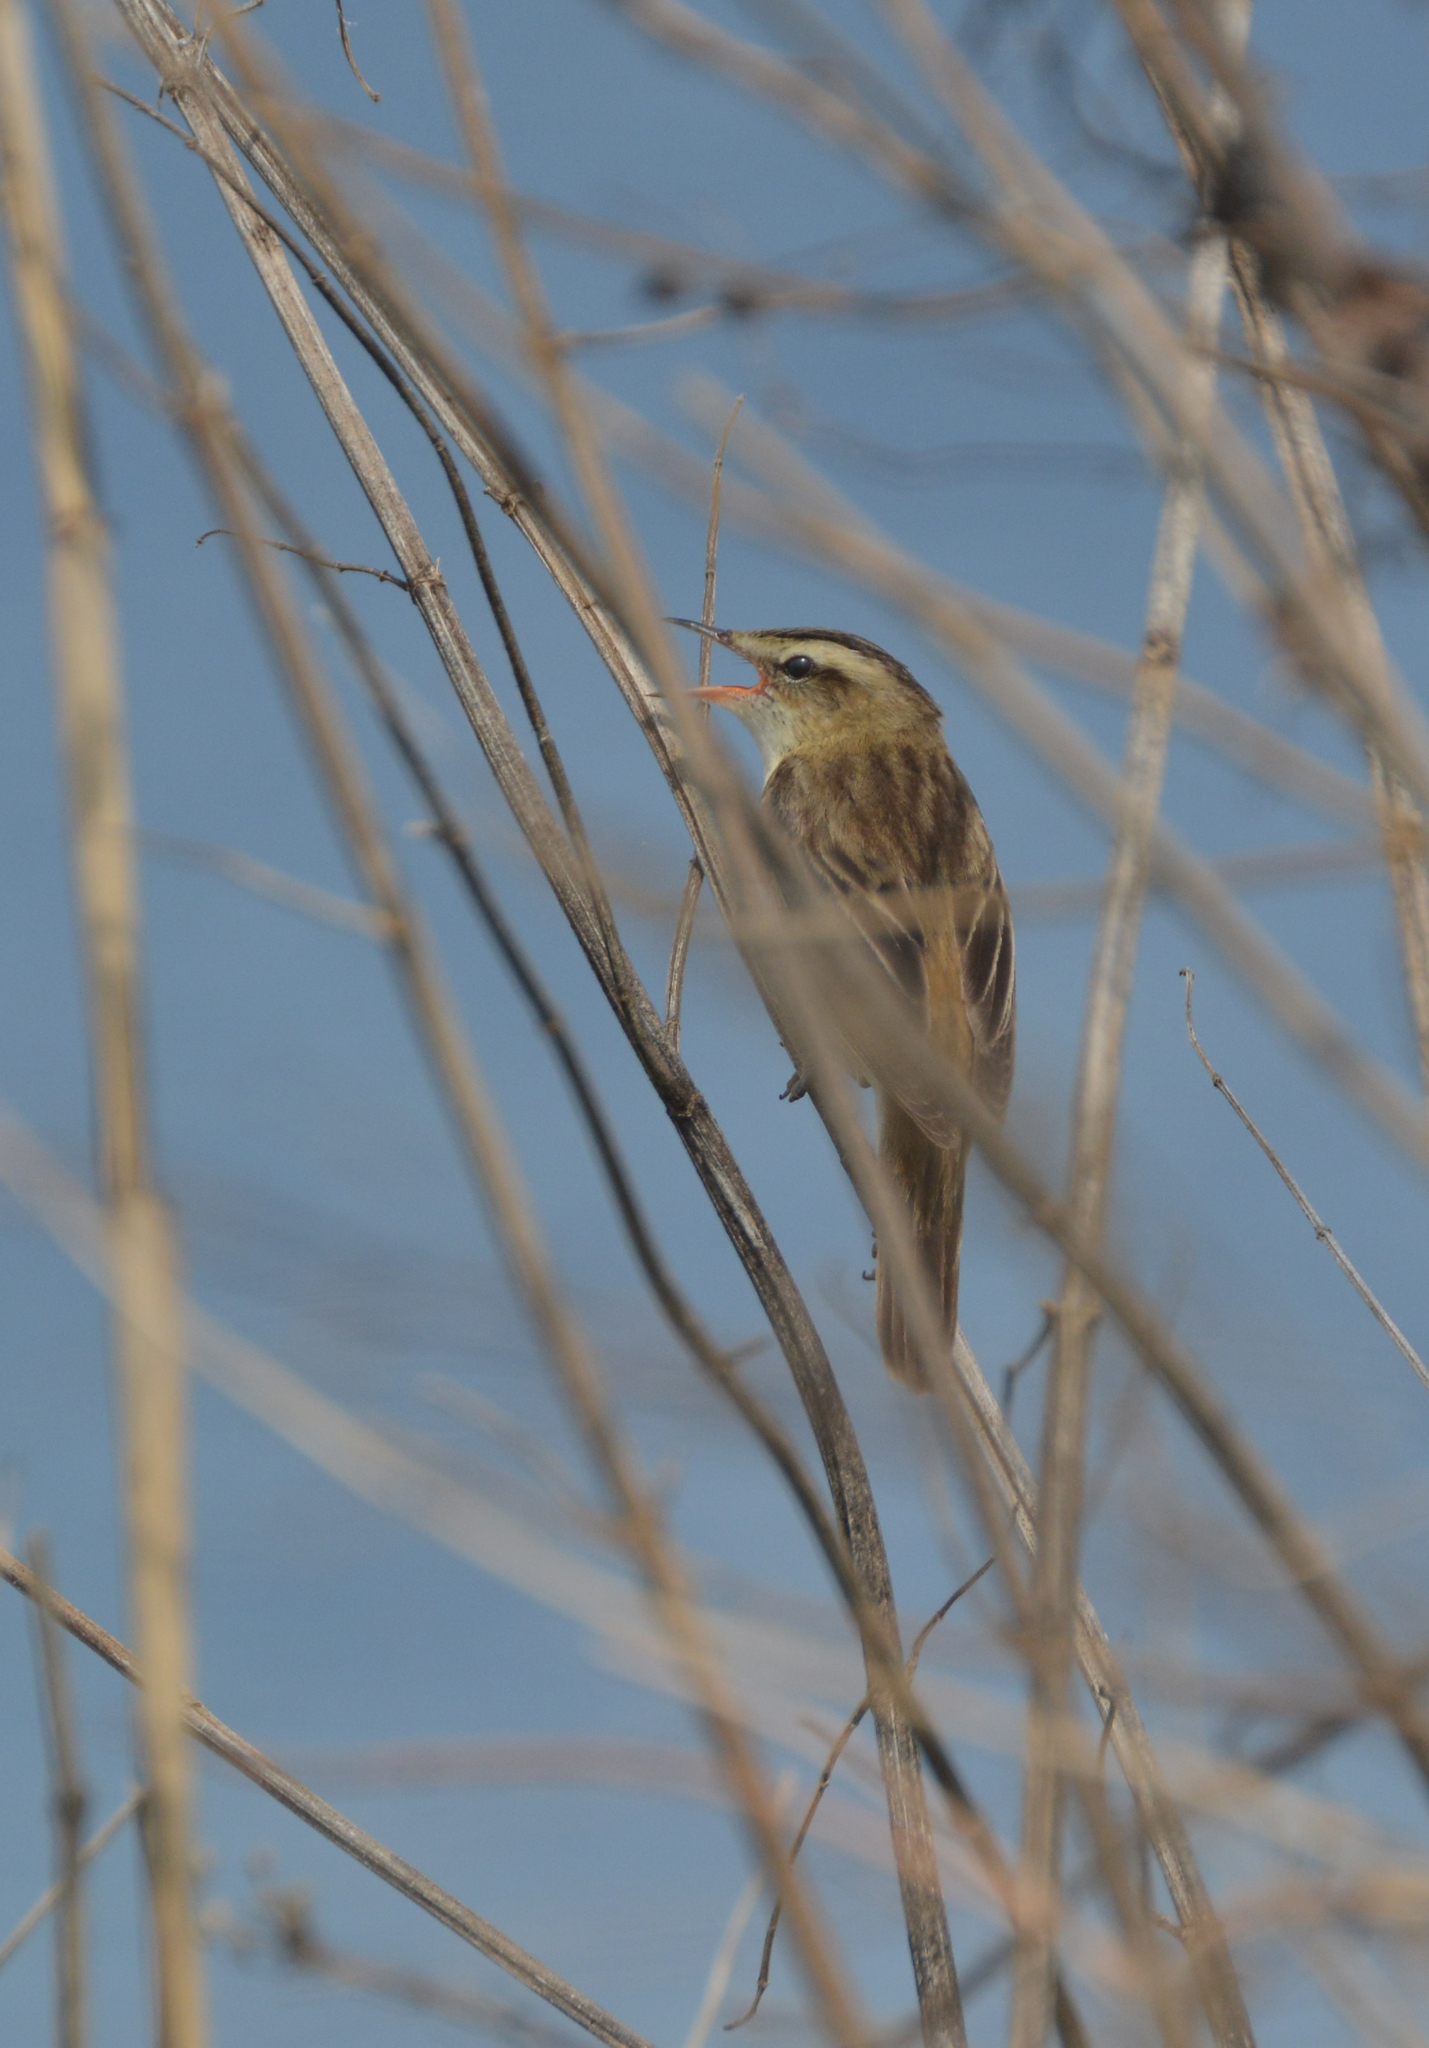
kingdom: Animalia
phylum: Chordata
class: Aves
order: Passeriformes
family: Acrocephalidae
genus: Acrocephalus
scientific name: Acrocephalus schoenobaenus
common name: Sedge warbler
